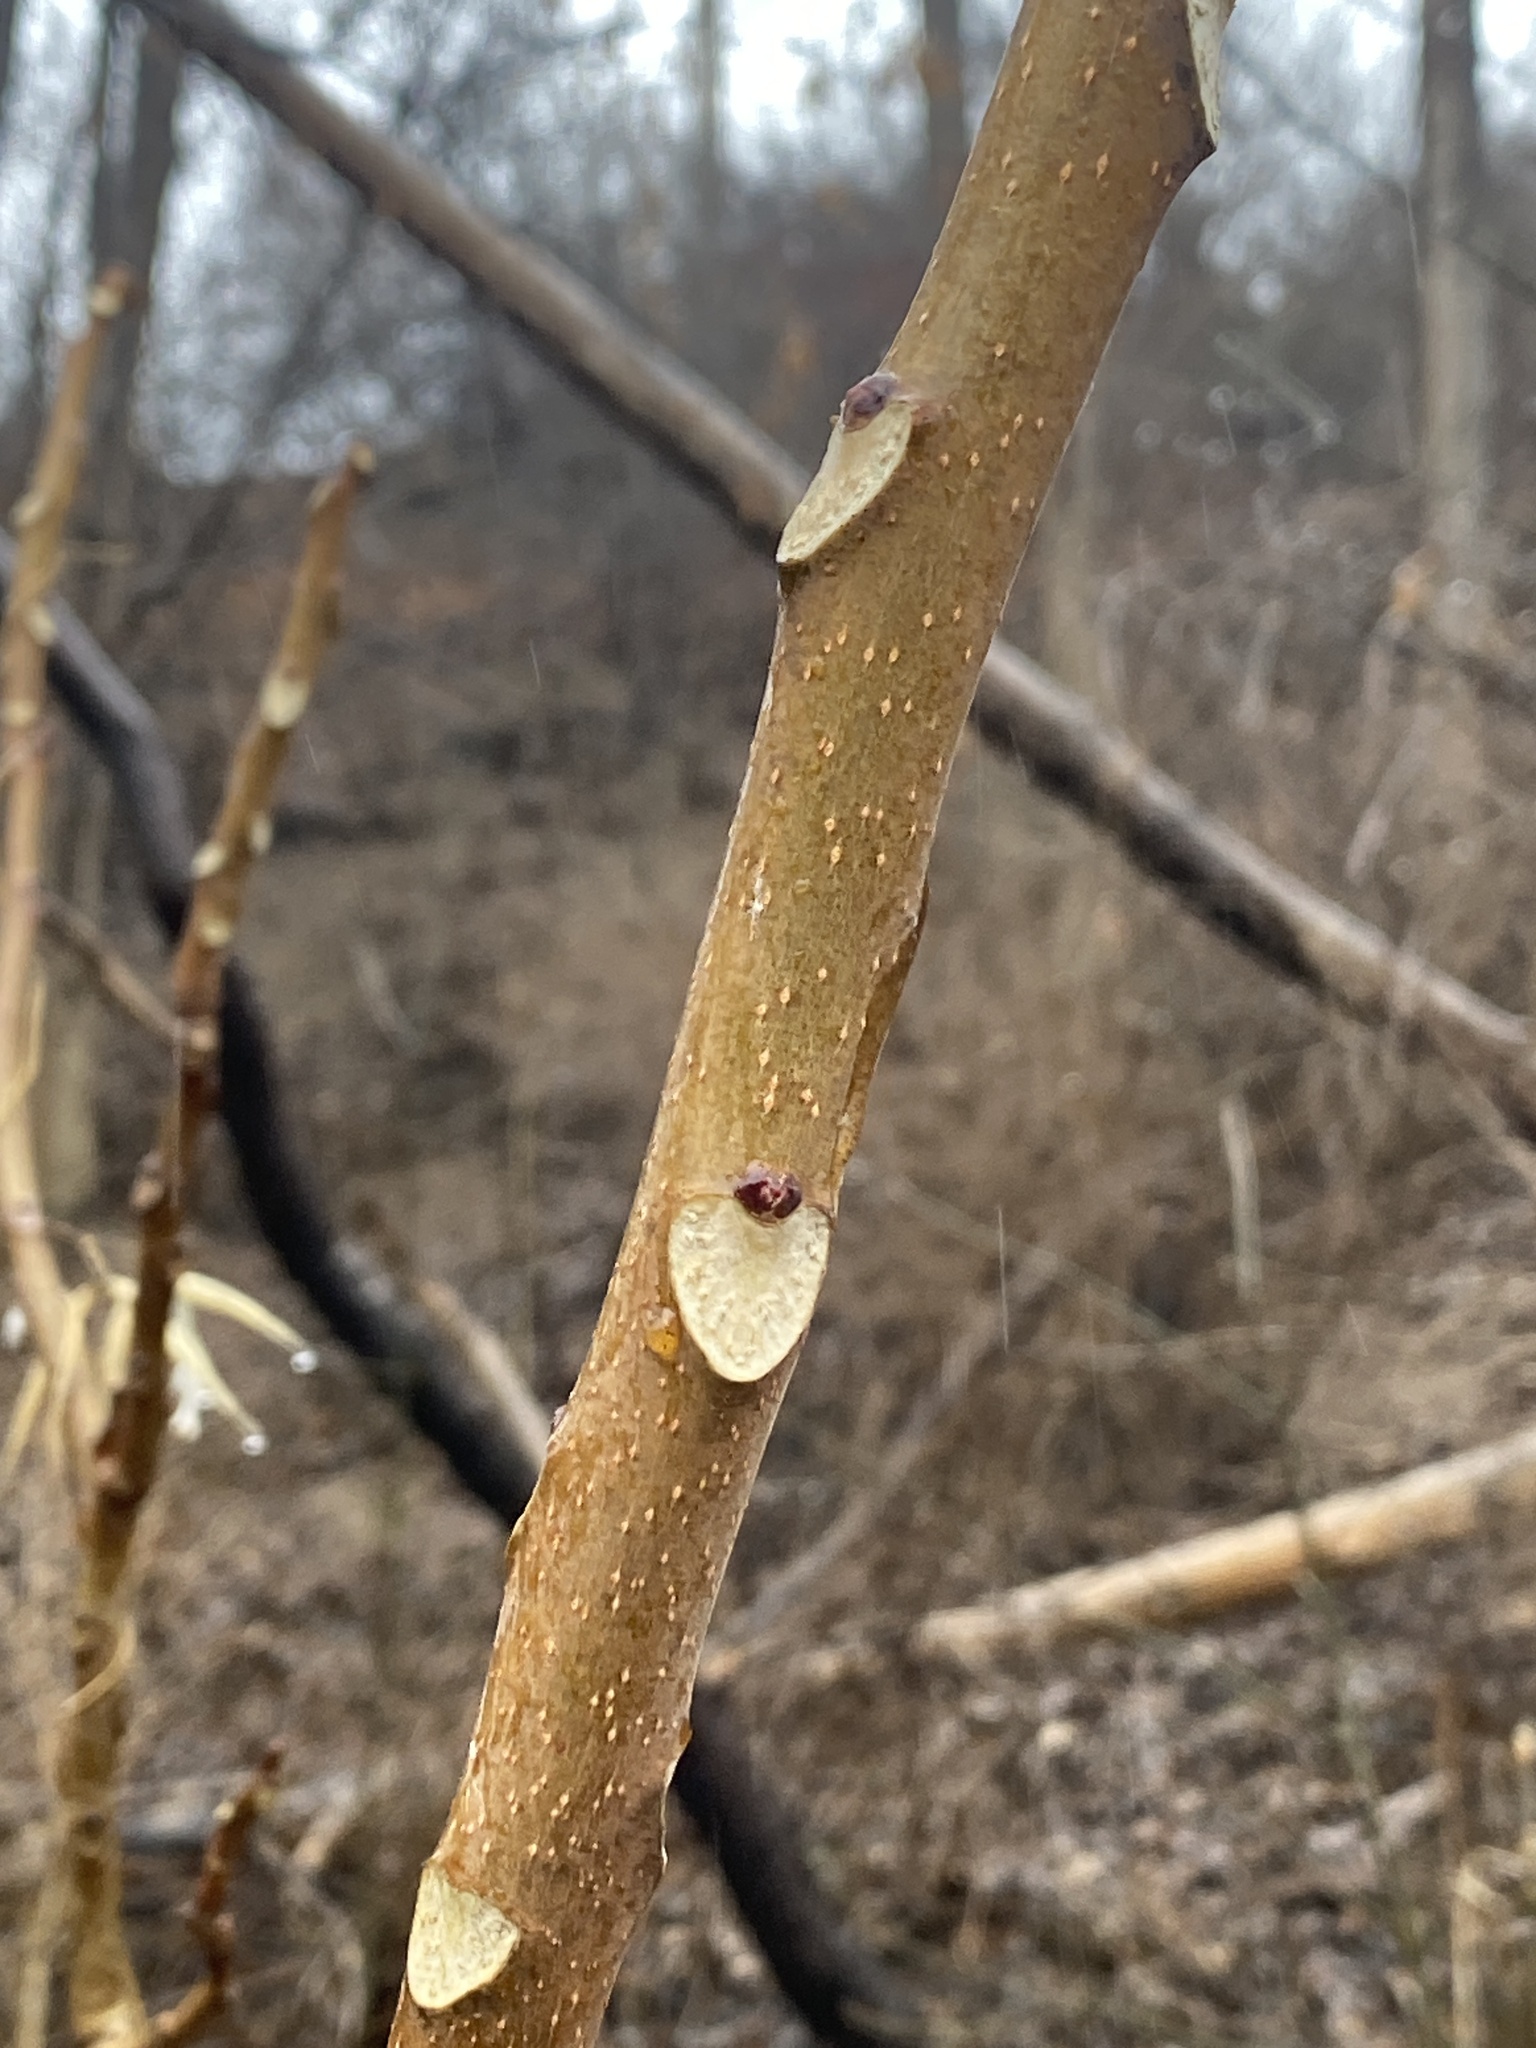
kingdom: Plantae
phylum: Tracheophyta
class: Magnoliopsida
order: Sapindales
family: Simaroubaceae
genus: Ailanthus
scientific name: Ailanthus altissima
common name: Tree-of-heaven
